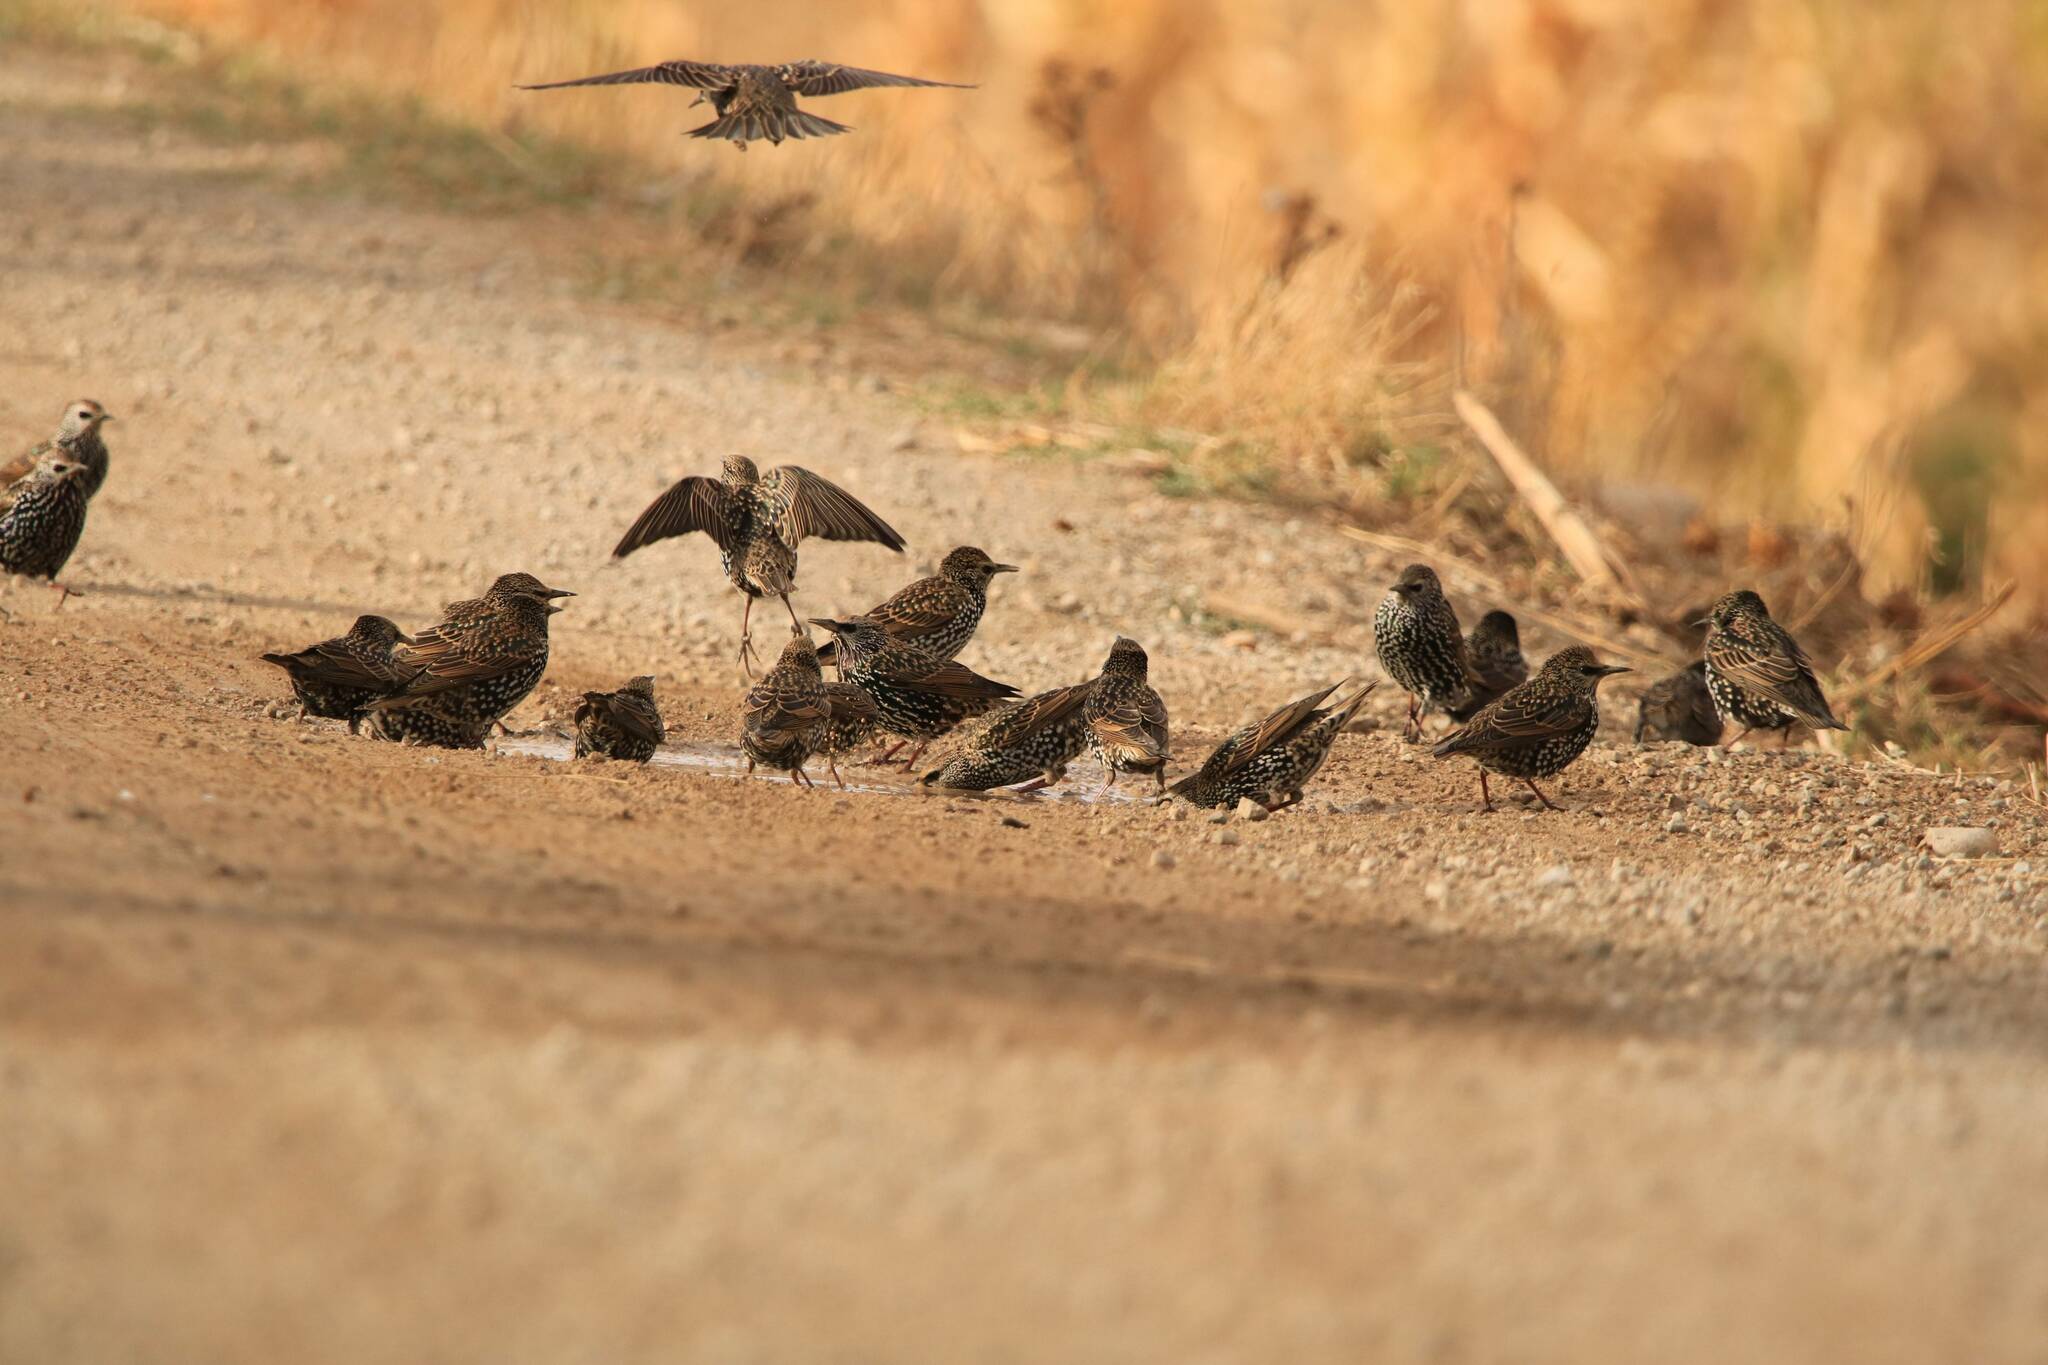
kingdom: Animalia
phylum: Chordata
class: Aves
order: Passeriformes
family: Sturnidae
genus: Sturnus
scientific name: Sturnus vulgaris
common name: Common starling
